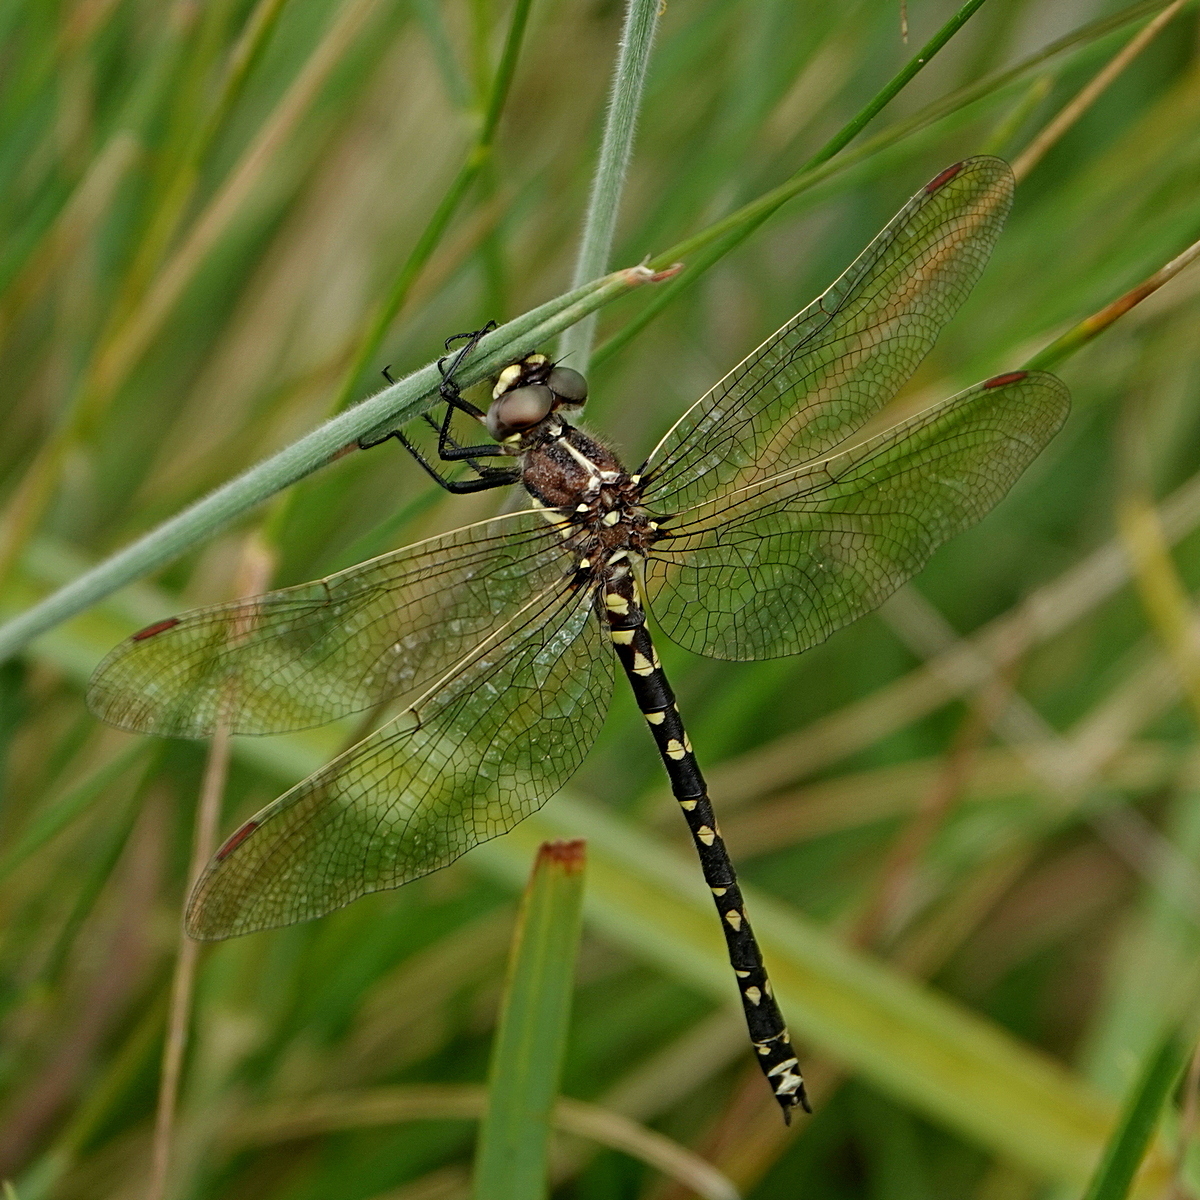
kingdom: Animalia
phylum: Arthropoda
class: Insecta
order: Odonata
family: Synthemistidae
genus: Synthemis
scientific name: Synthemis eustalacta
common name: Swamp tigertail
